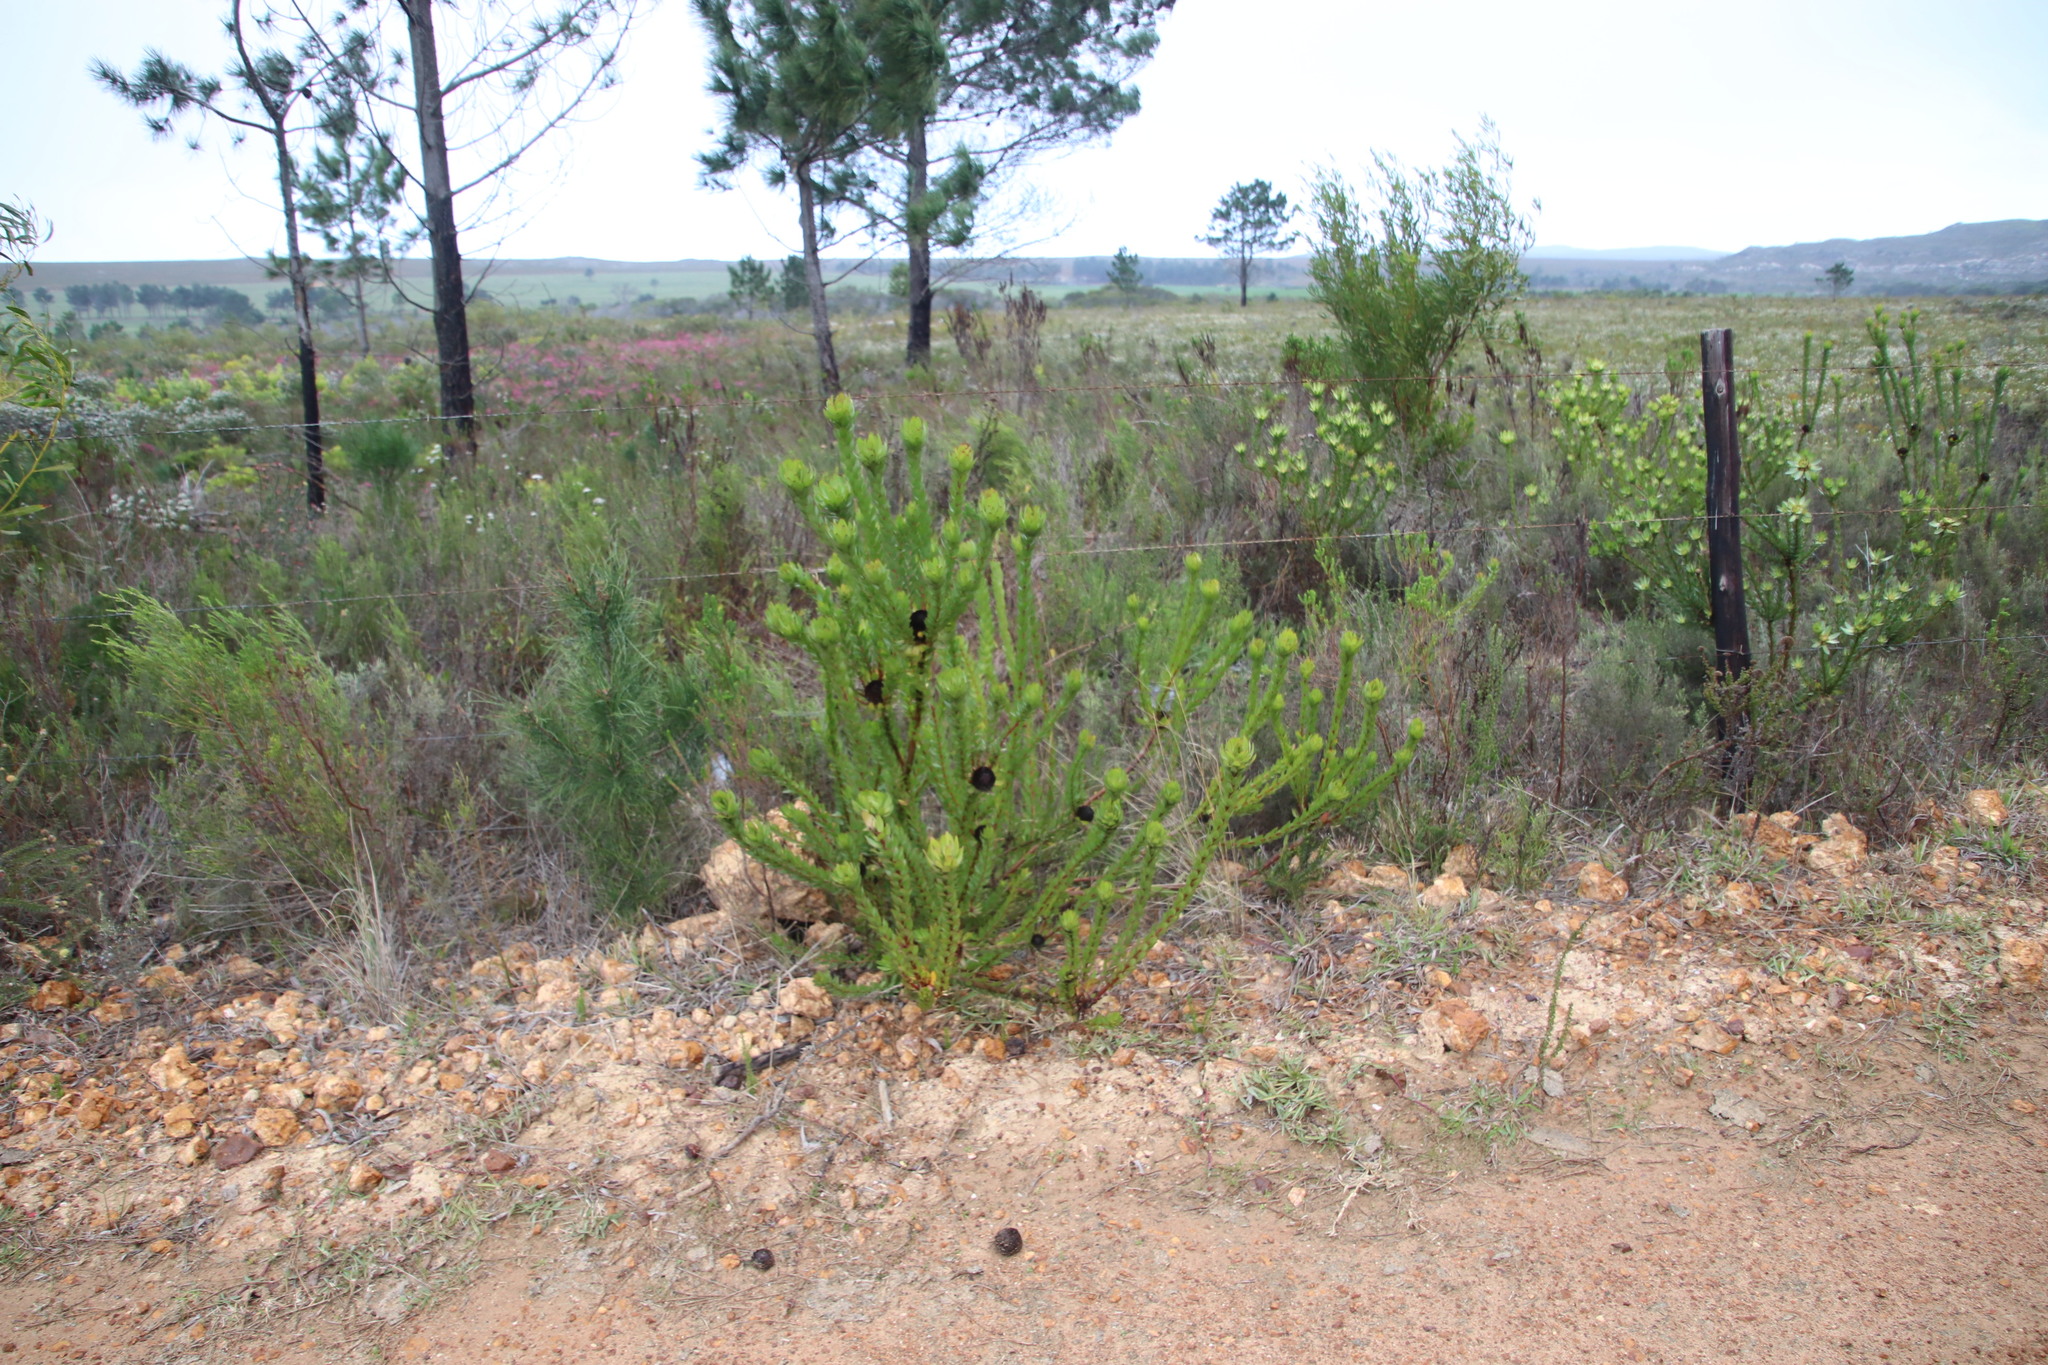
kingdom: Plantae
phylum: Tracheophyta
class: Magnoliopsida
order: Proteales
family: Proteaceae
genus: Leucadendron
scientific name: Leucadendron elimense
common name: Elim conebush
